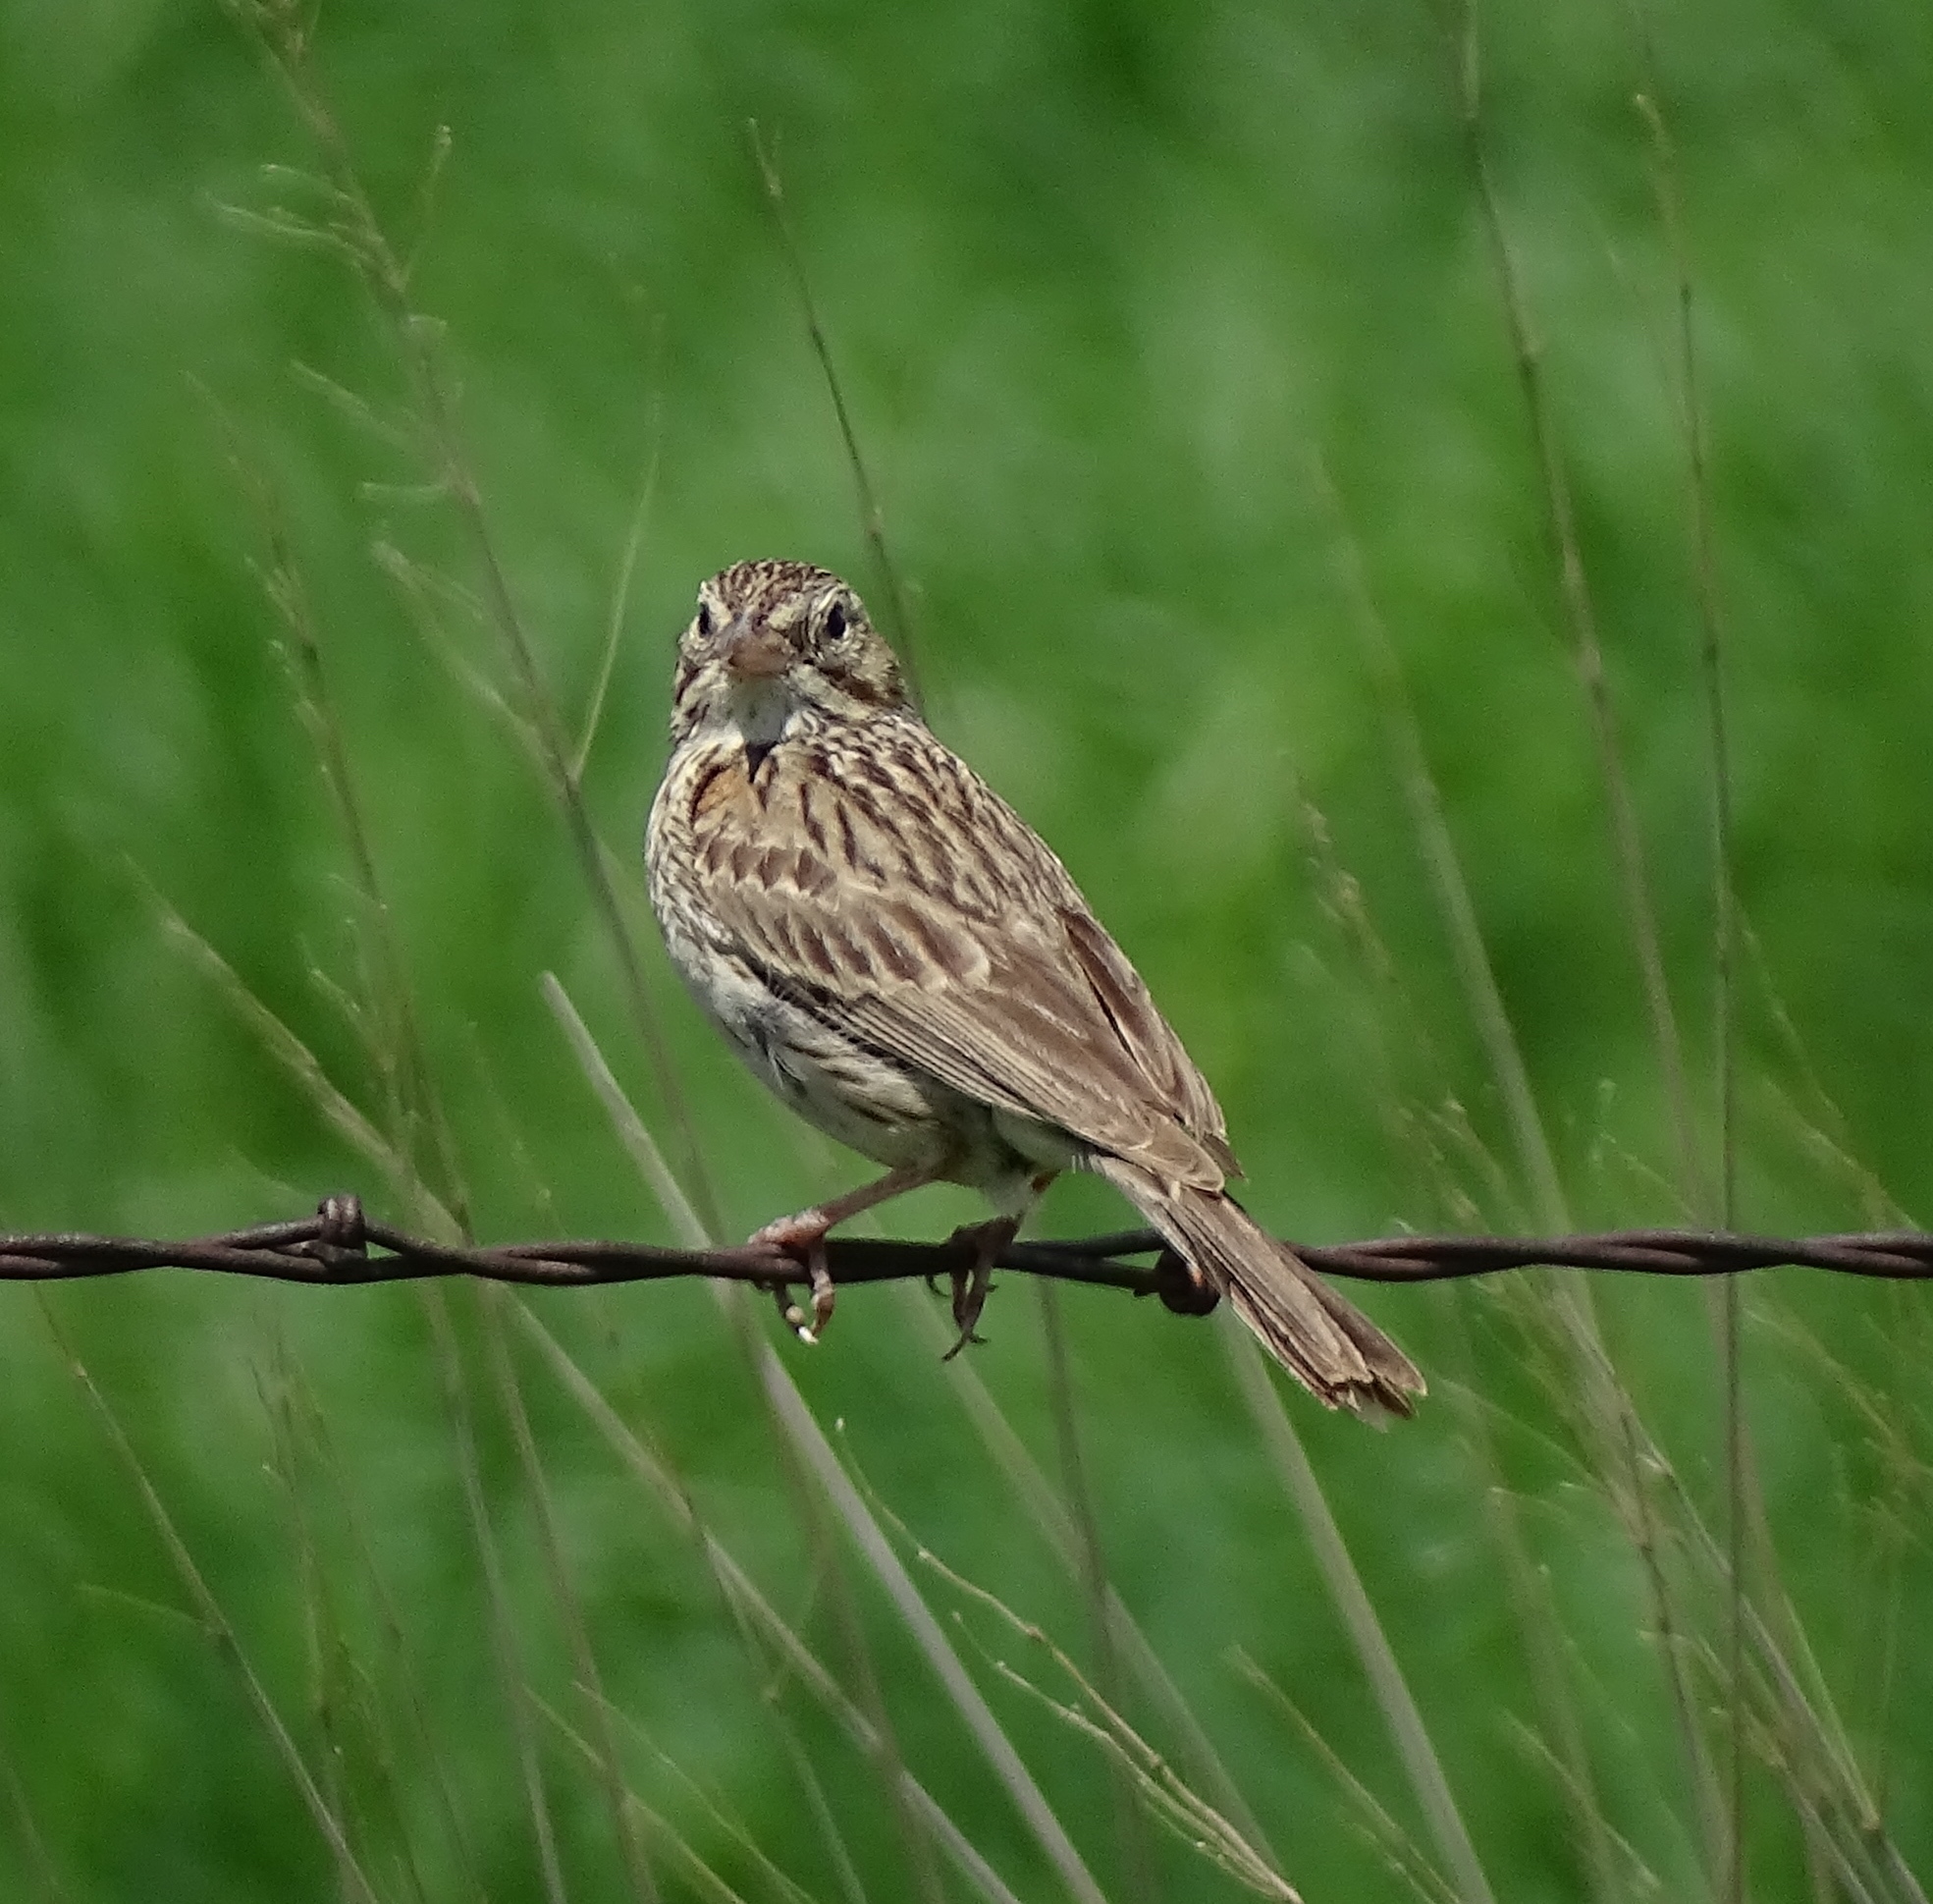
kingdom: Animalia
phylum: Chordata
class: Aves
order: Passeriformes
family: Passerellidae
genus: Pooecetes
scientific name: Pooecetes gramineus
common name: Vesper sparrow
